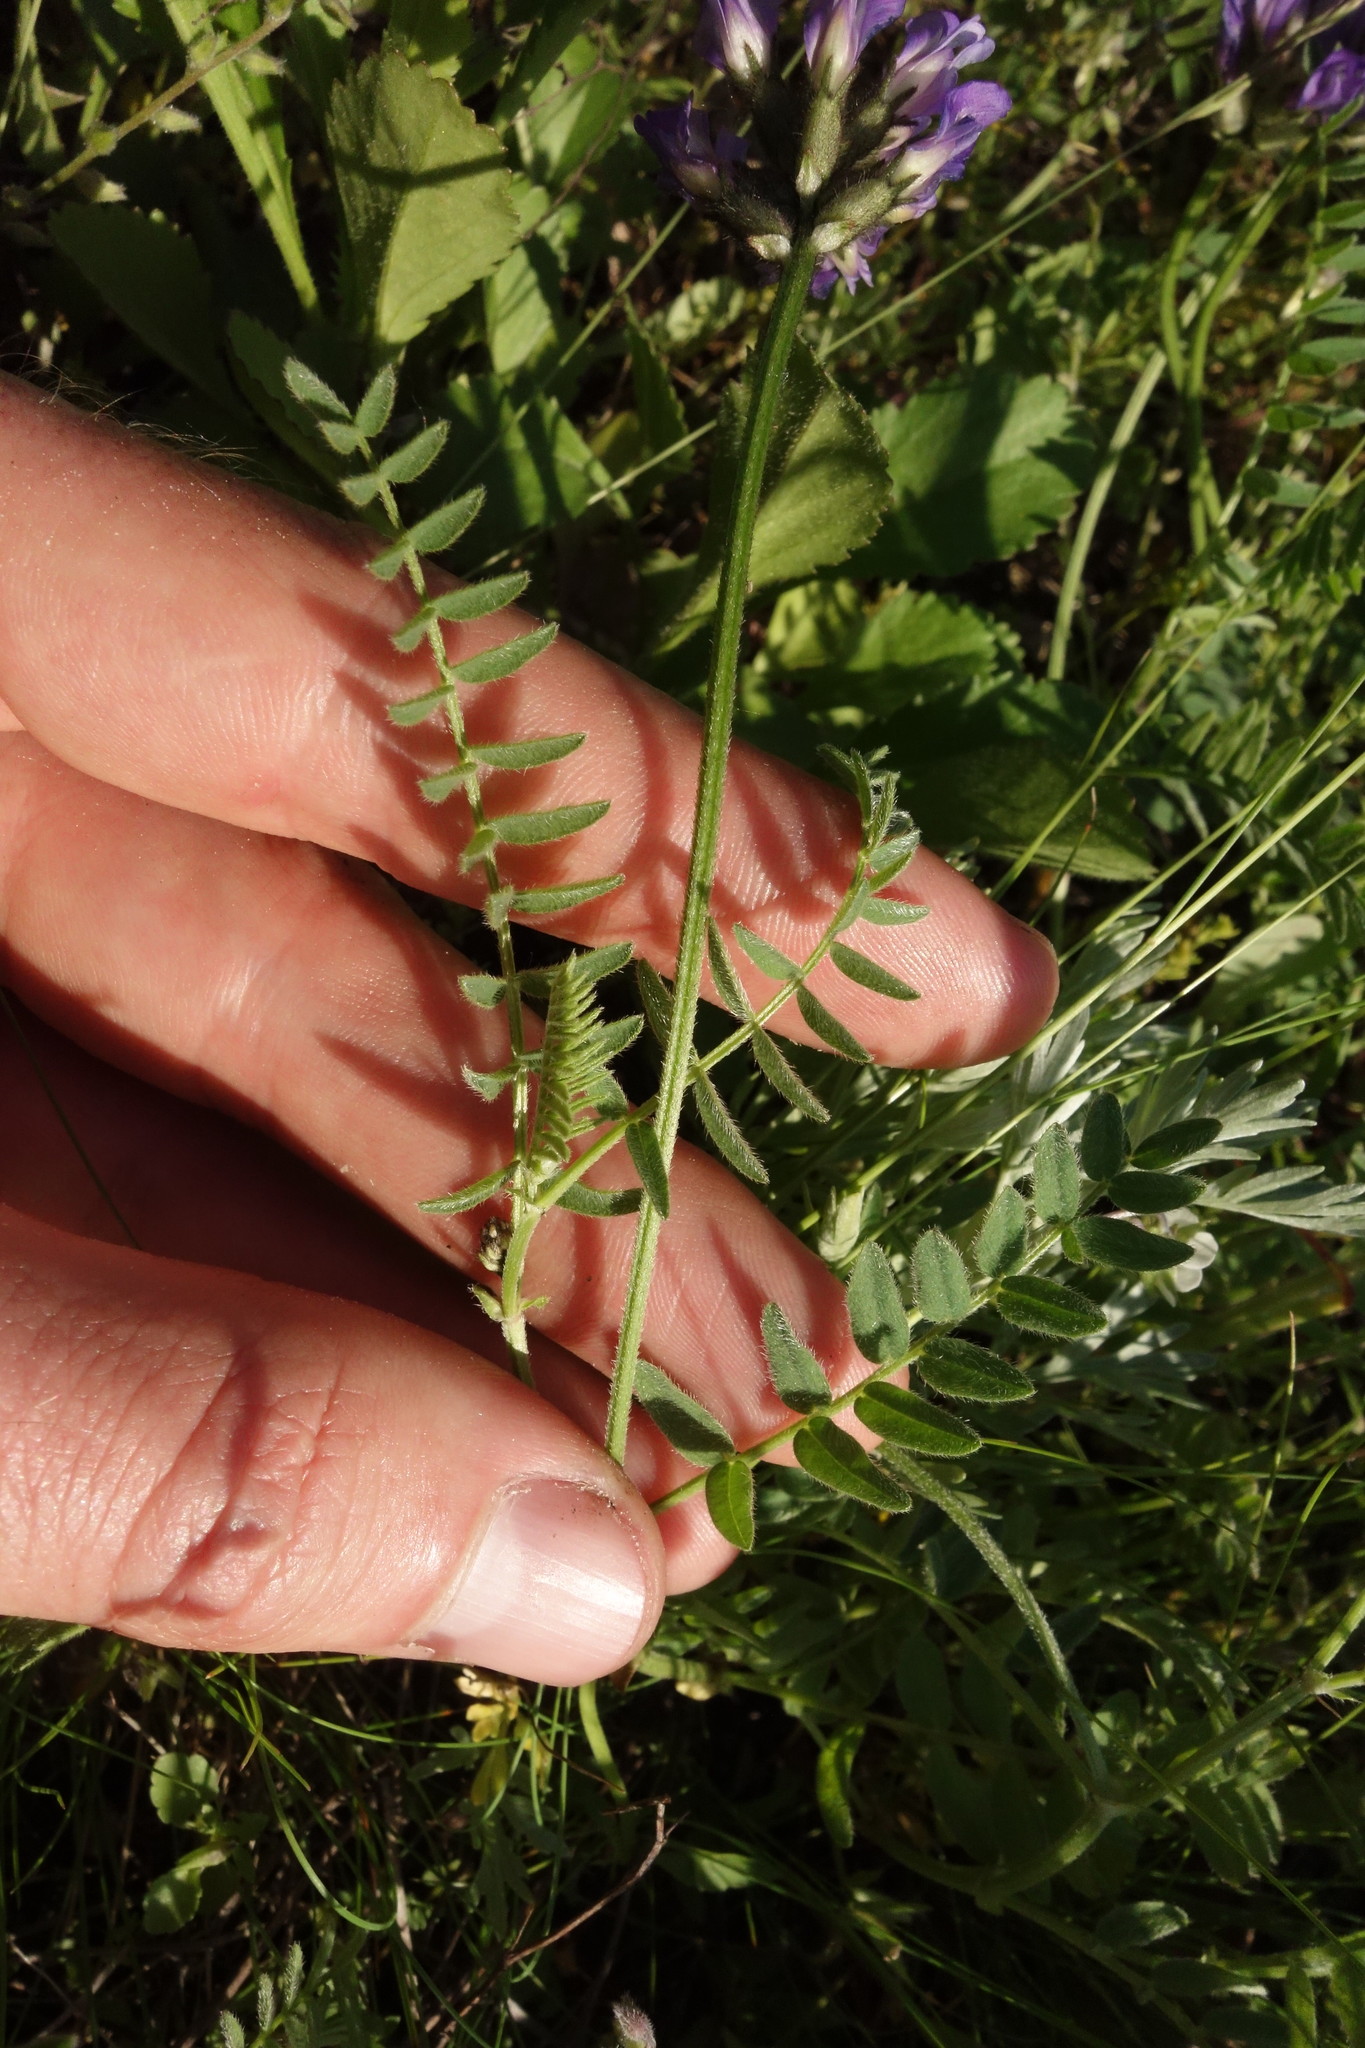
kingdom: Plantae
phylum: Tracheophyta
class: Magnoliopsida
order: Fabales
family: Fabaceae
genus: Astragalus
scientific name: Astragalus danicus
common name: Purple milk-vetch
